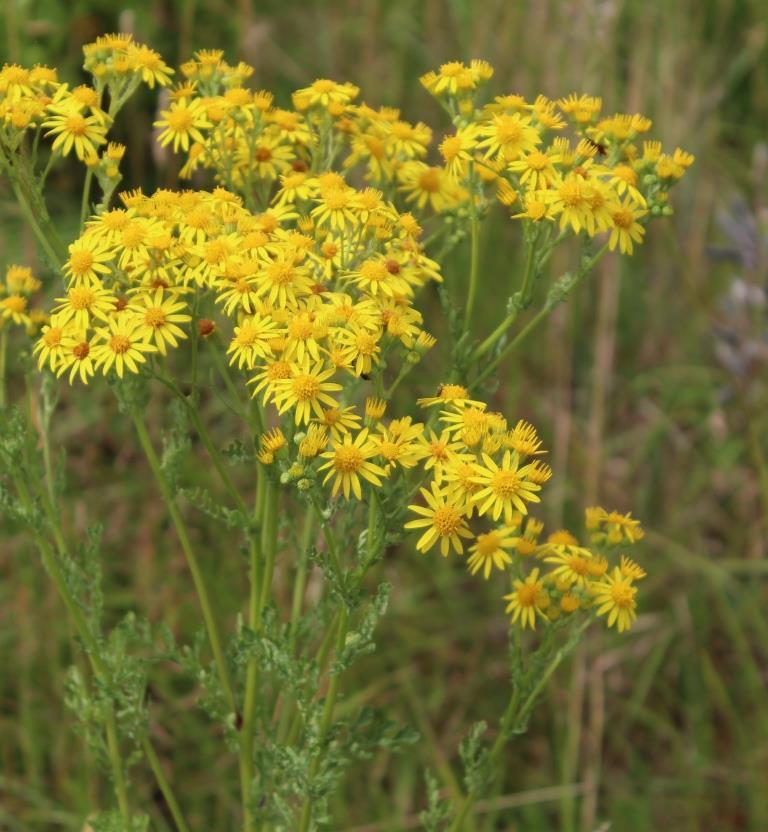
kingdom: Plantae
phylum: Tracheophyta
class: Magnoliopsida
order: Asterales
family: Asteraceae
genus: Jacobaea
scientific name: Jacobaea vulgaris
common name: Stinking willie
